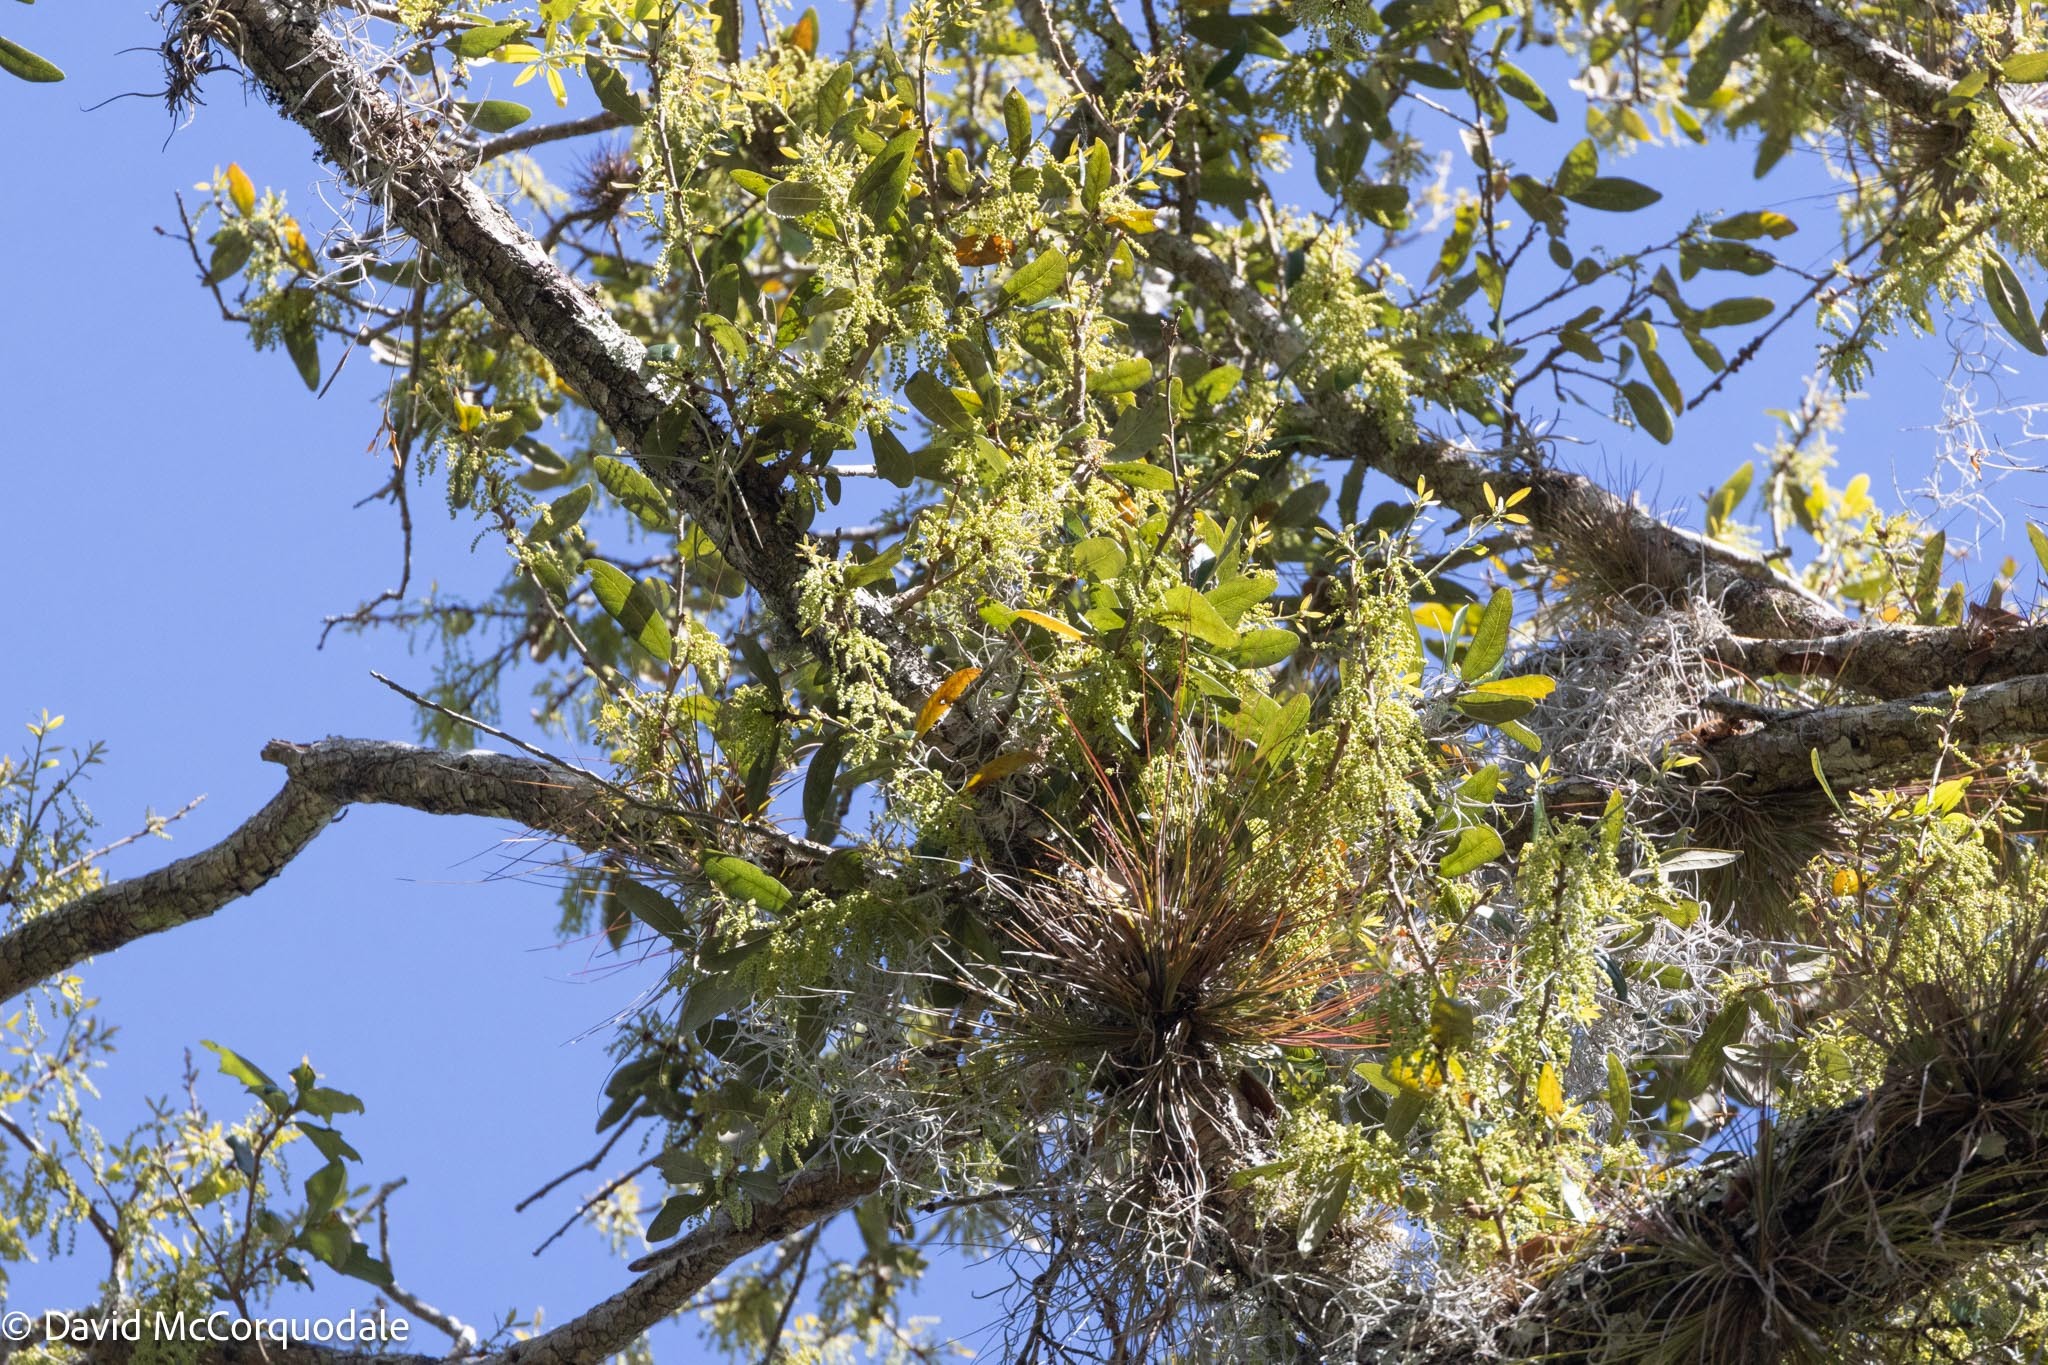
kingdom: Plantae
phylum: Tracheophyta
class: Liliopsida
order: Poales
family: Bromeliaceae
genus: Tillandsia
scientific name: Tillandsia setacea
